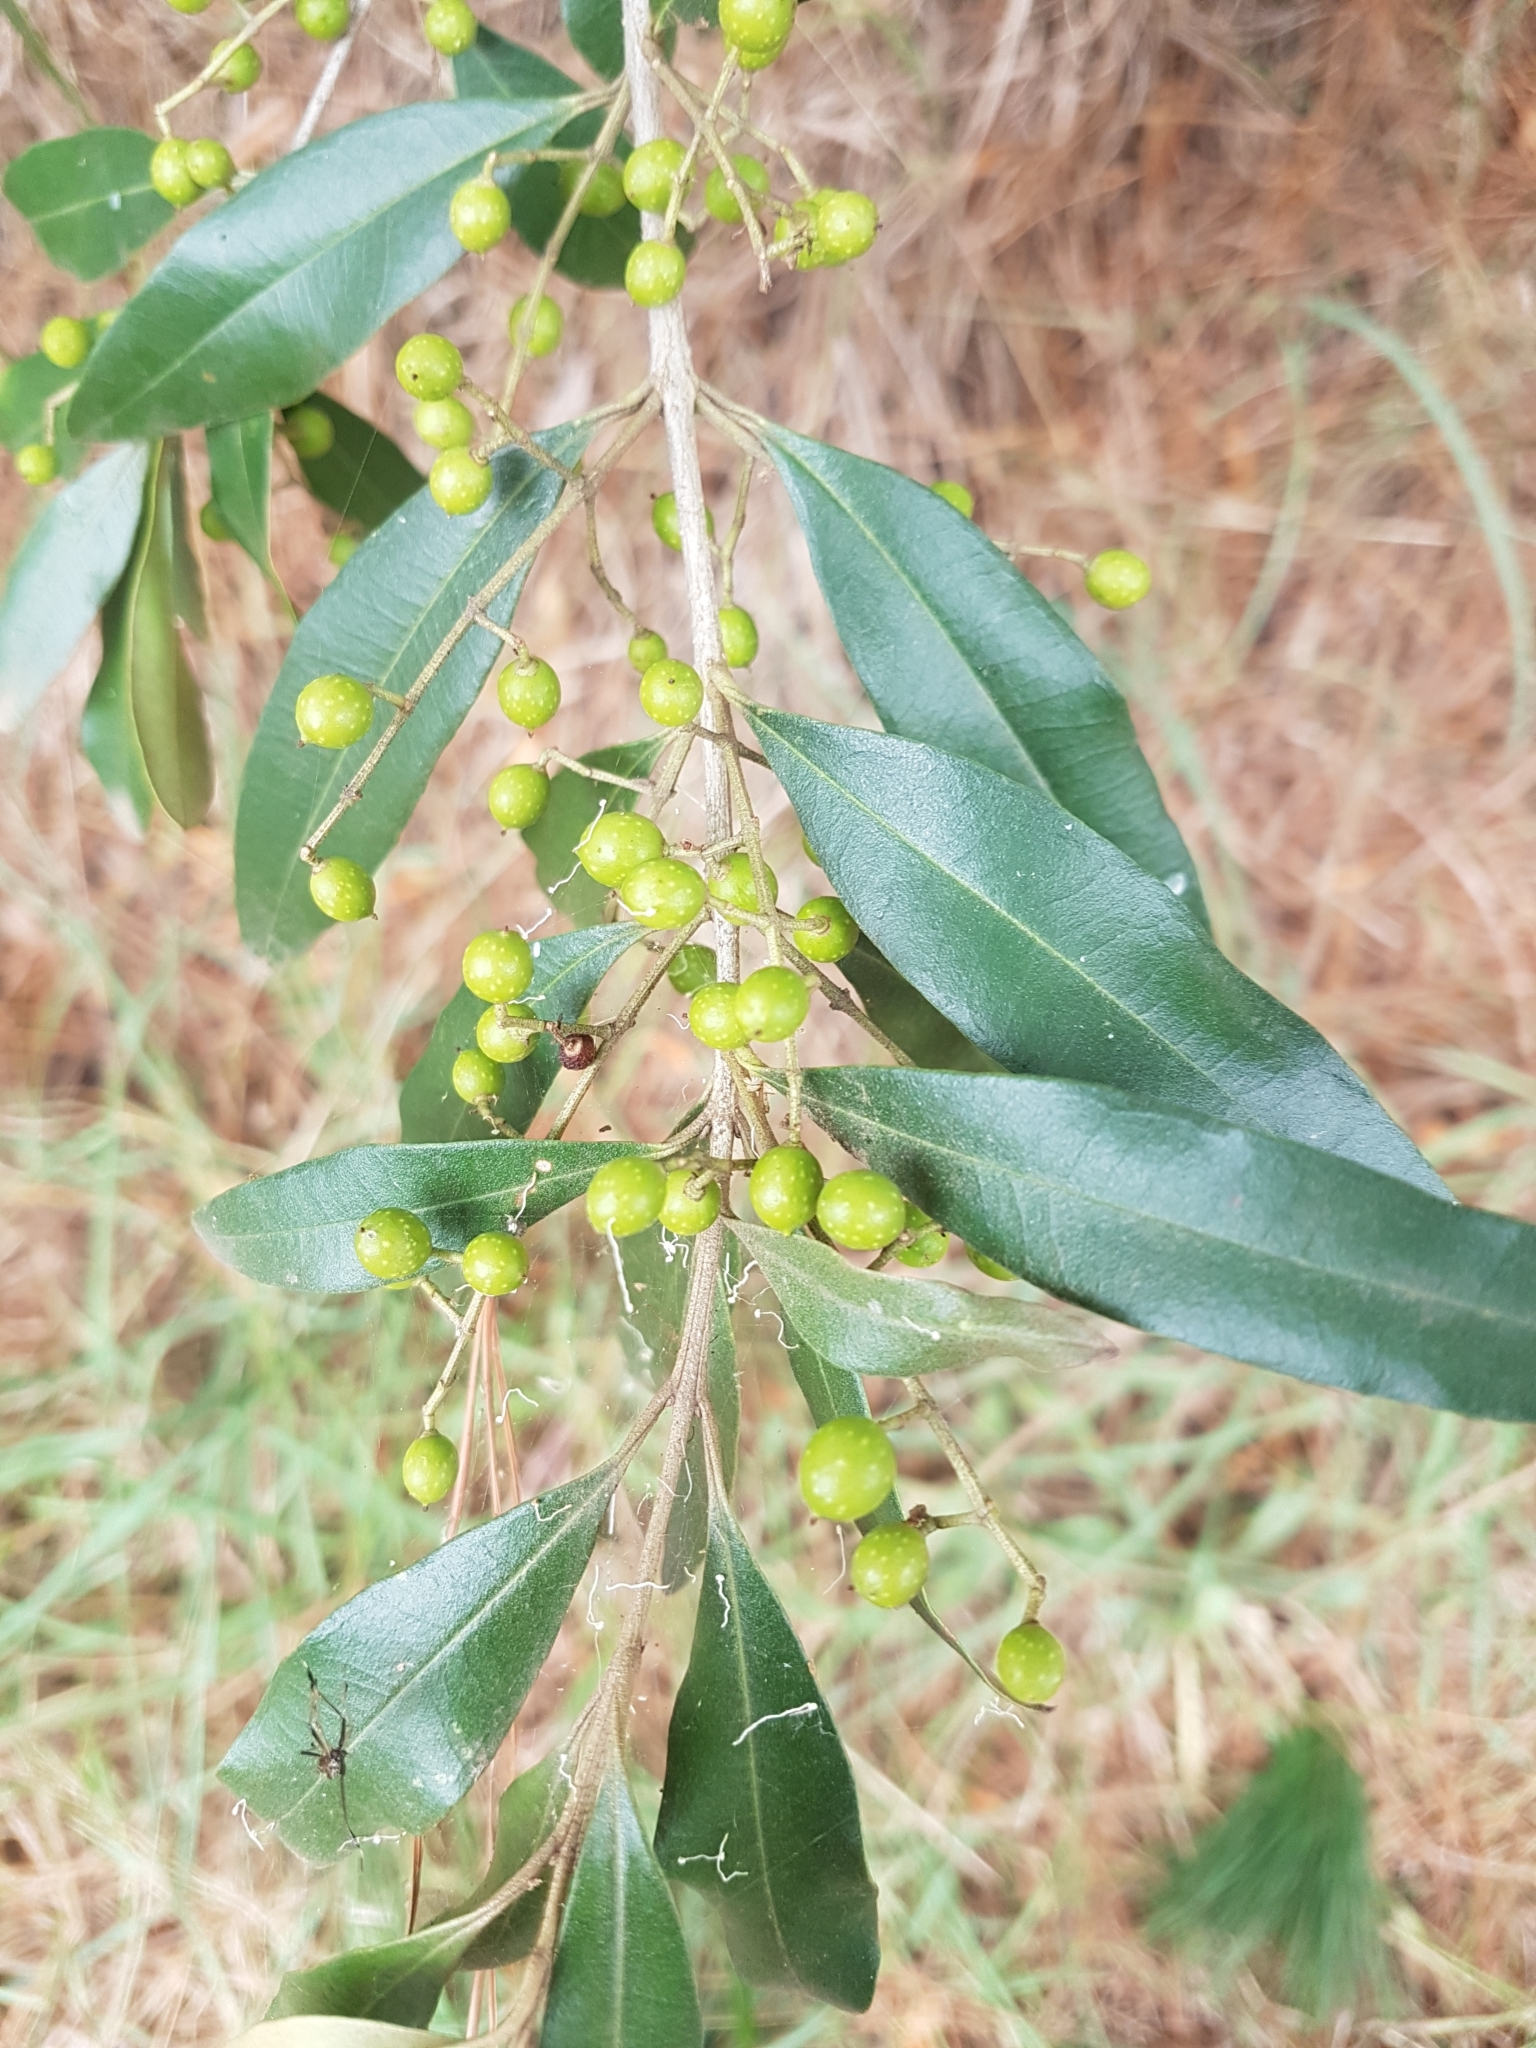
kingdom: Plantae
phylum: Tracheophyta
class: Magnoliopsida
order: Lamiales
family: Oleaceae
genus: Olea
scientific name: Olea europaea
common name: Olive
